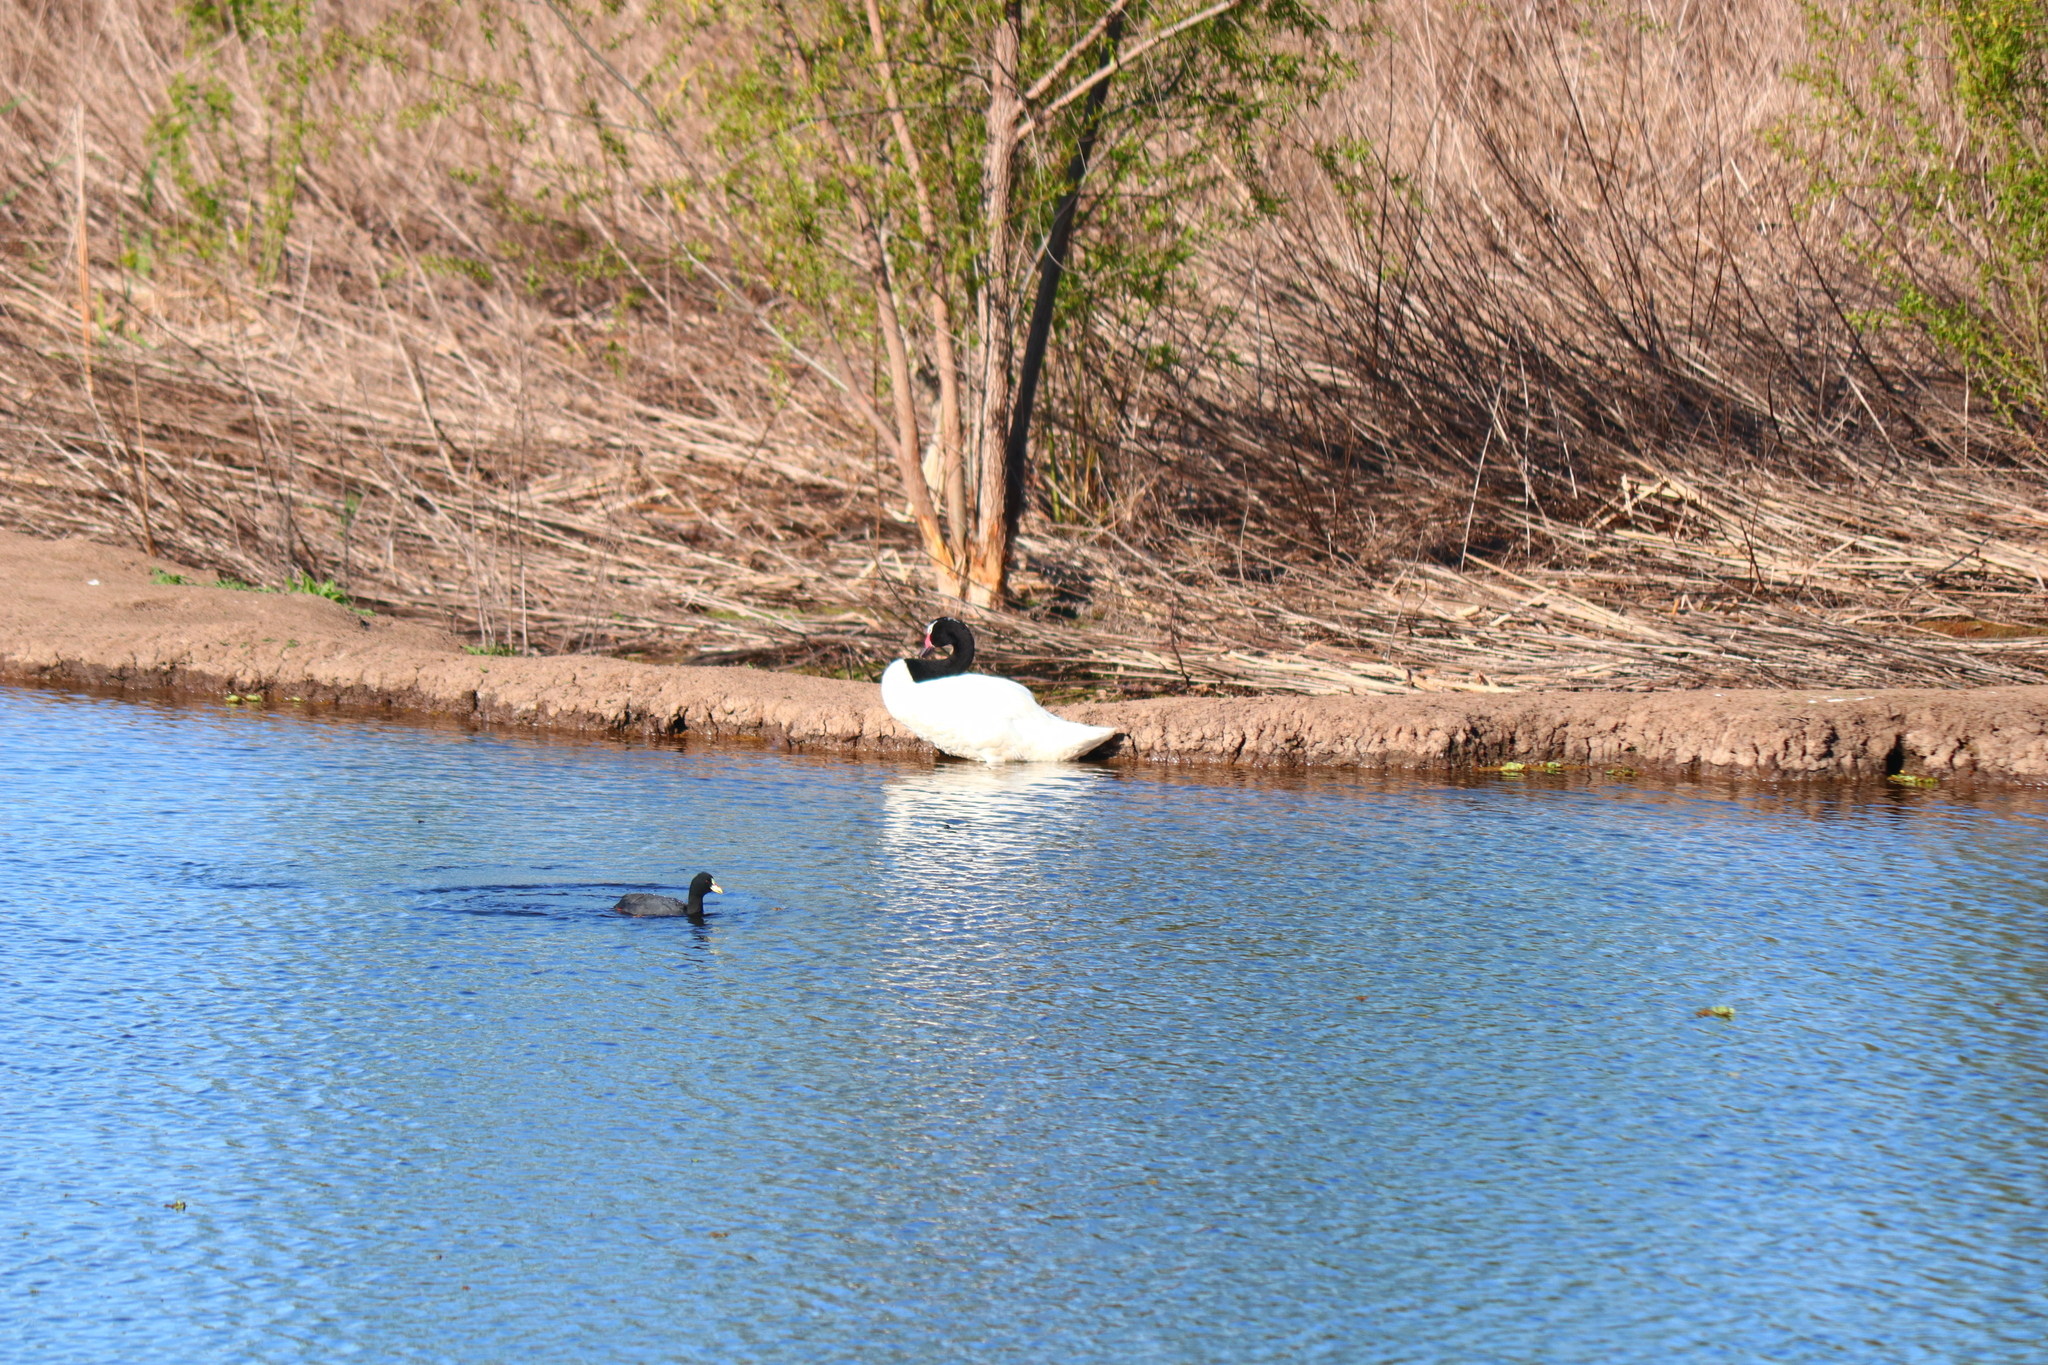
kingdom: Animalia
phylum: Chordata
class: Aves
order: Anseriformes
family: Anatidae
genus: Cygnus
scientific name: Cygnus melancoryphus
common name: Black-necked swan
